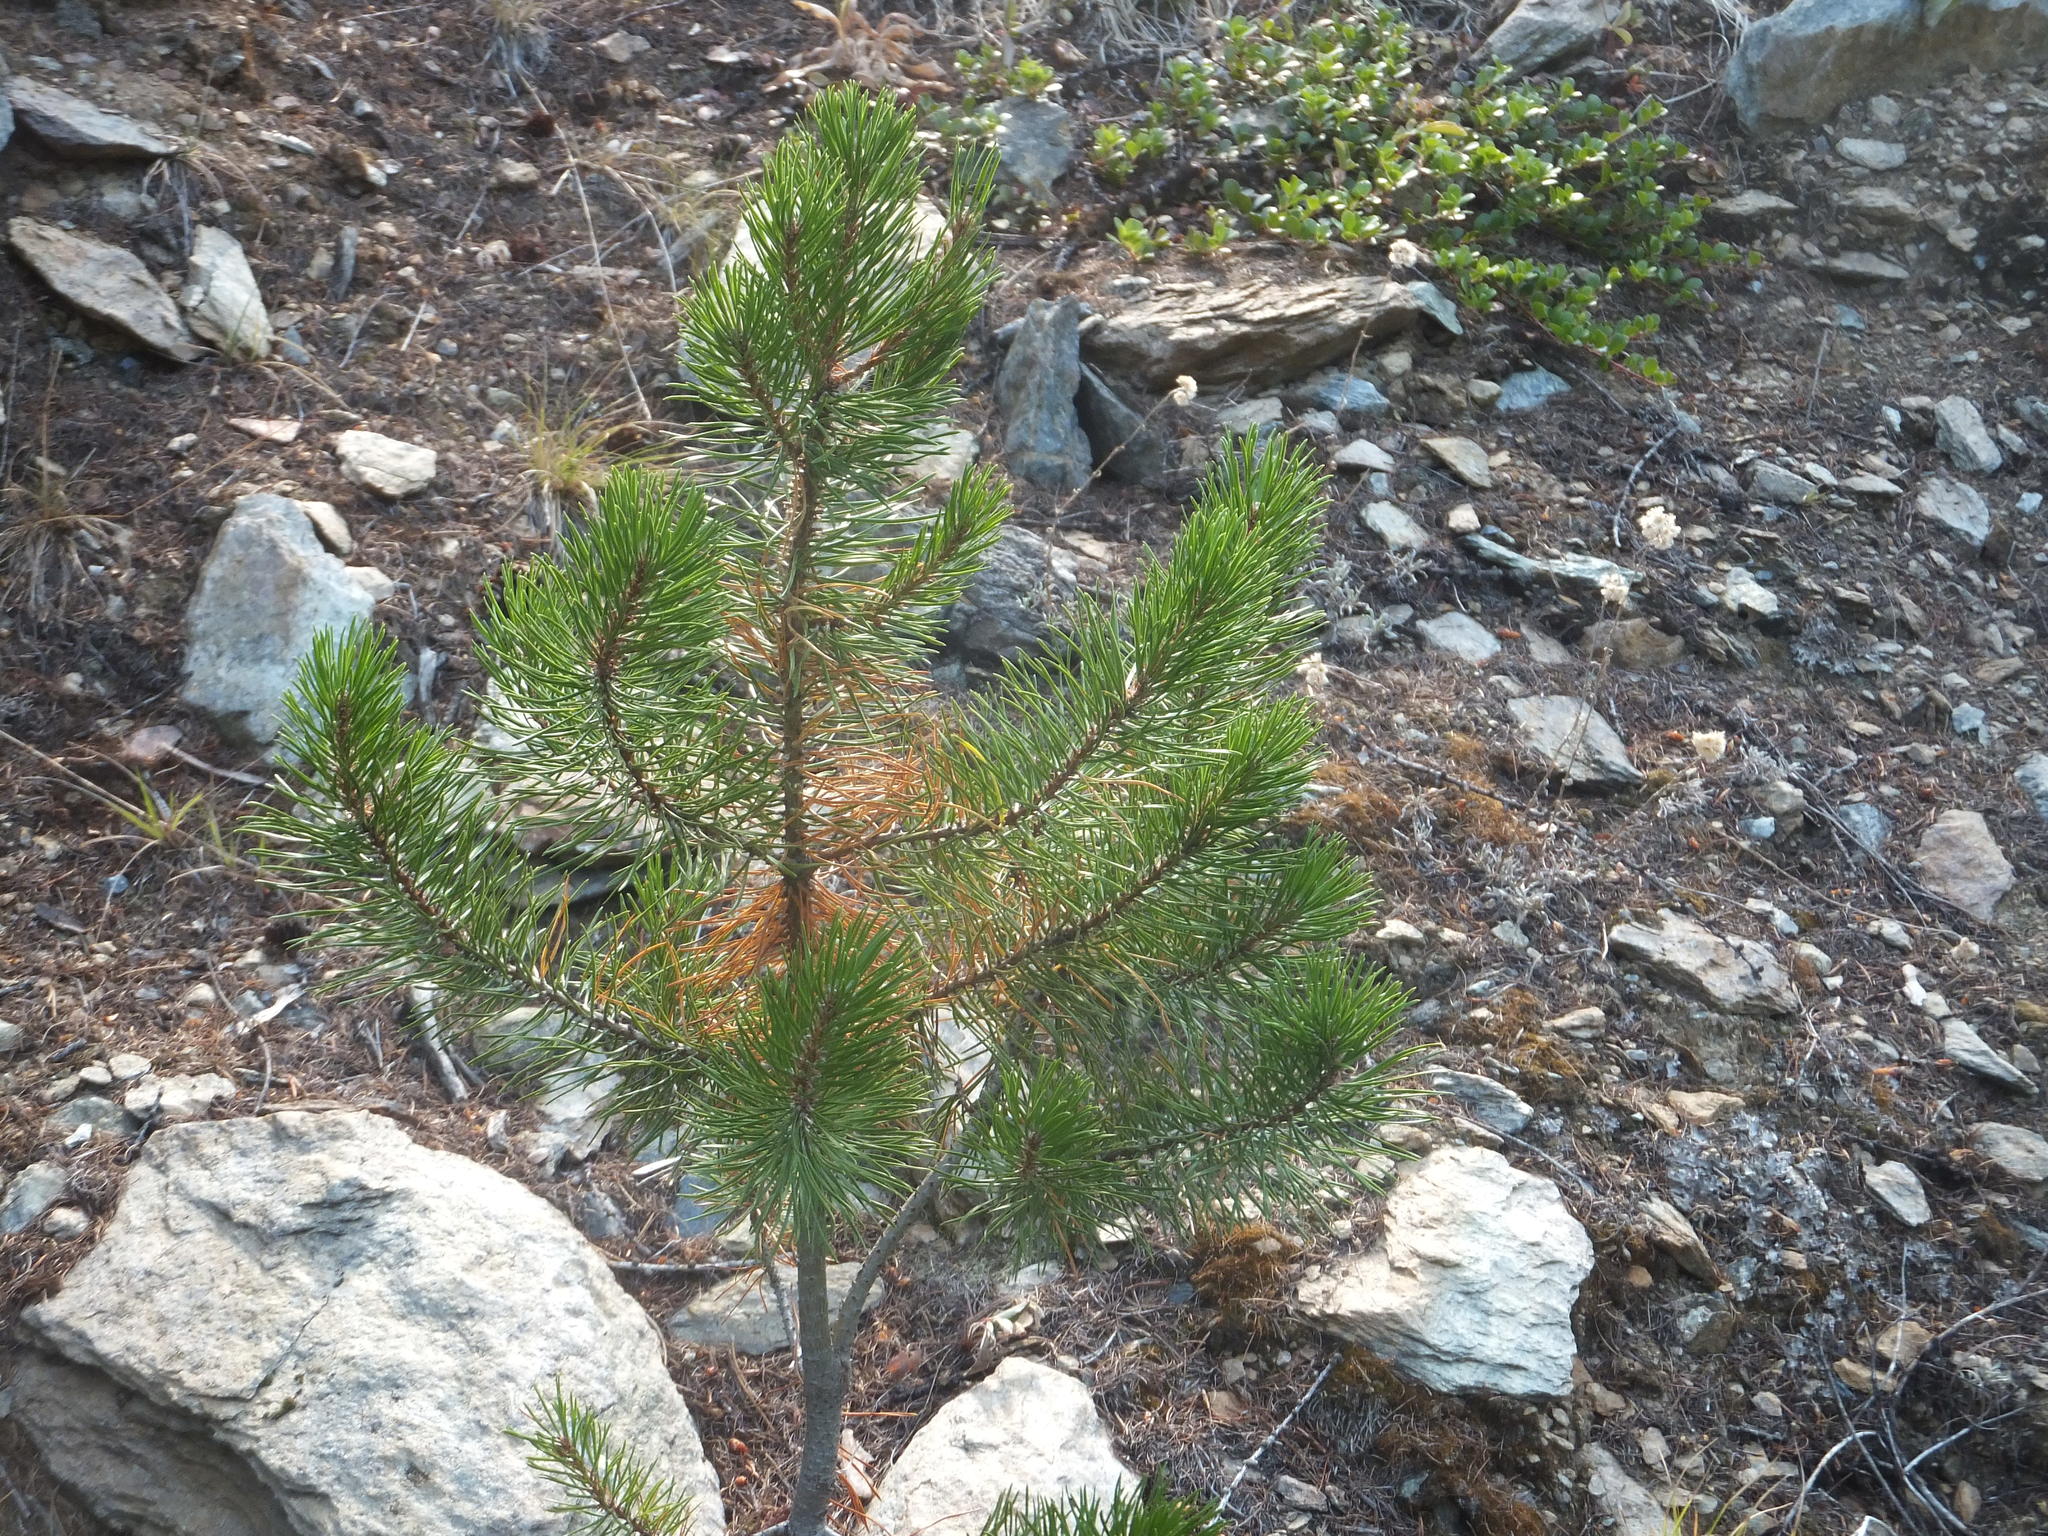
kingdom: Plantae
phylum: Tracheophyta
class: Pinopsida
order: Pinales
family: Pinaceae
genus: Pinus
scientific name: Pinus contorta
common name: Lodgepole pine
